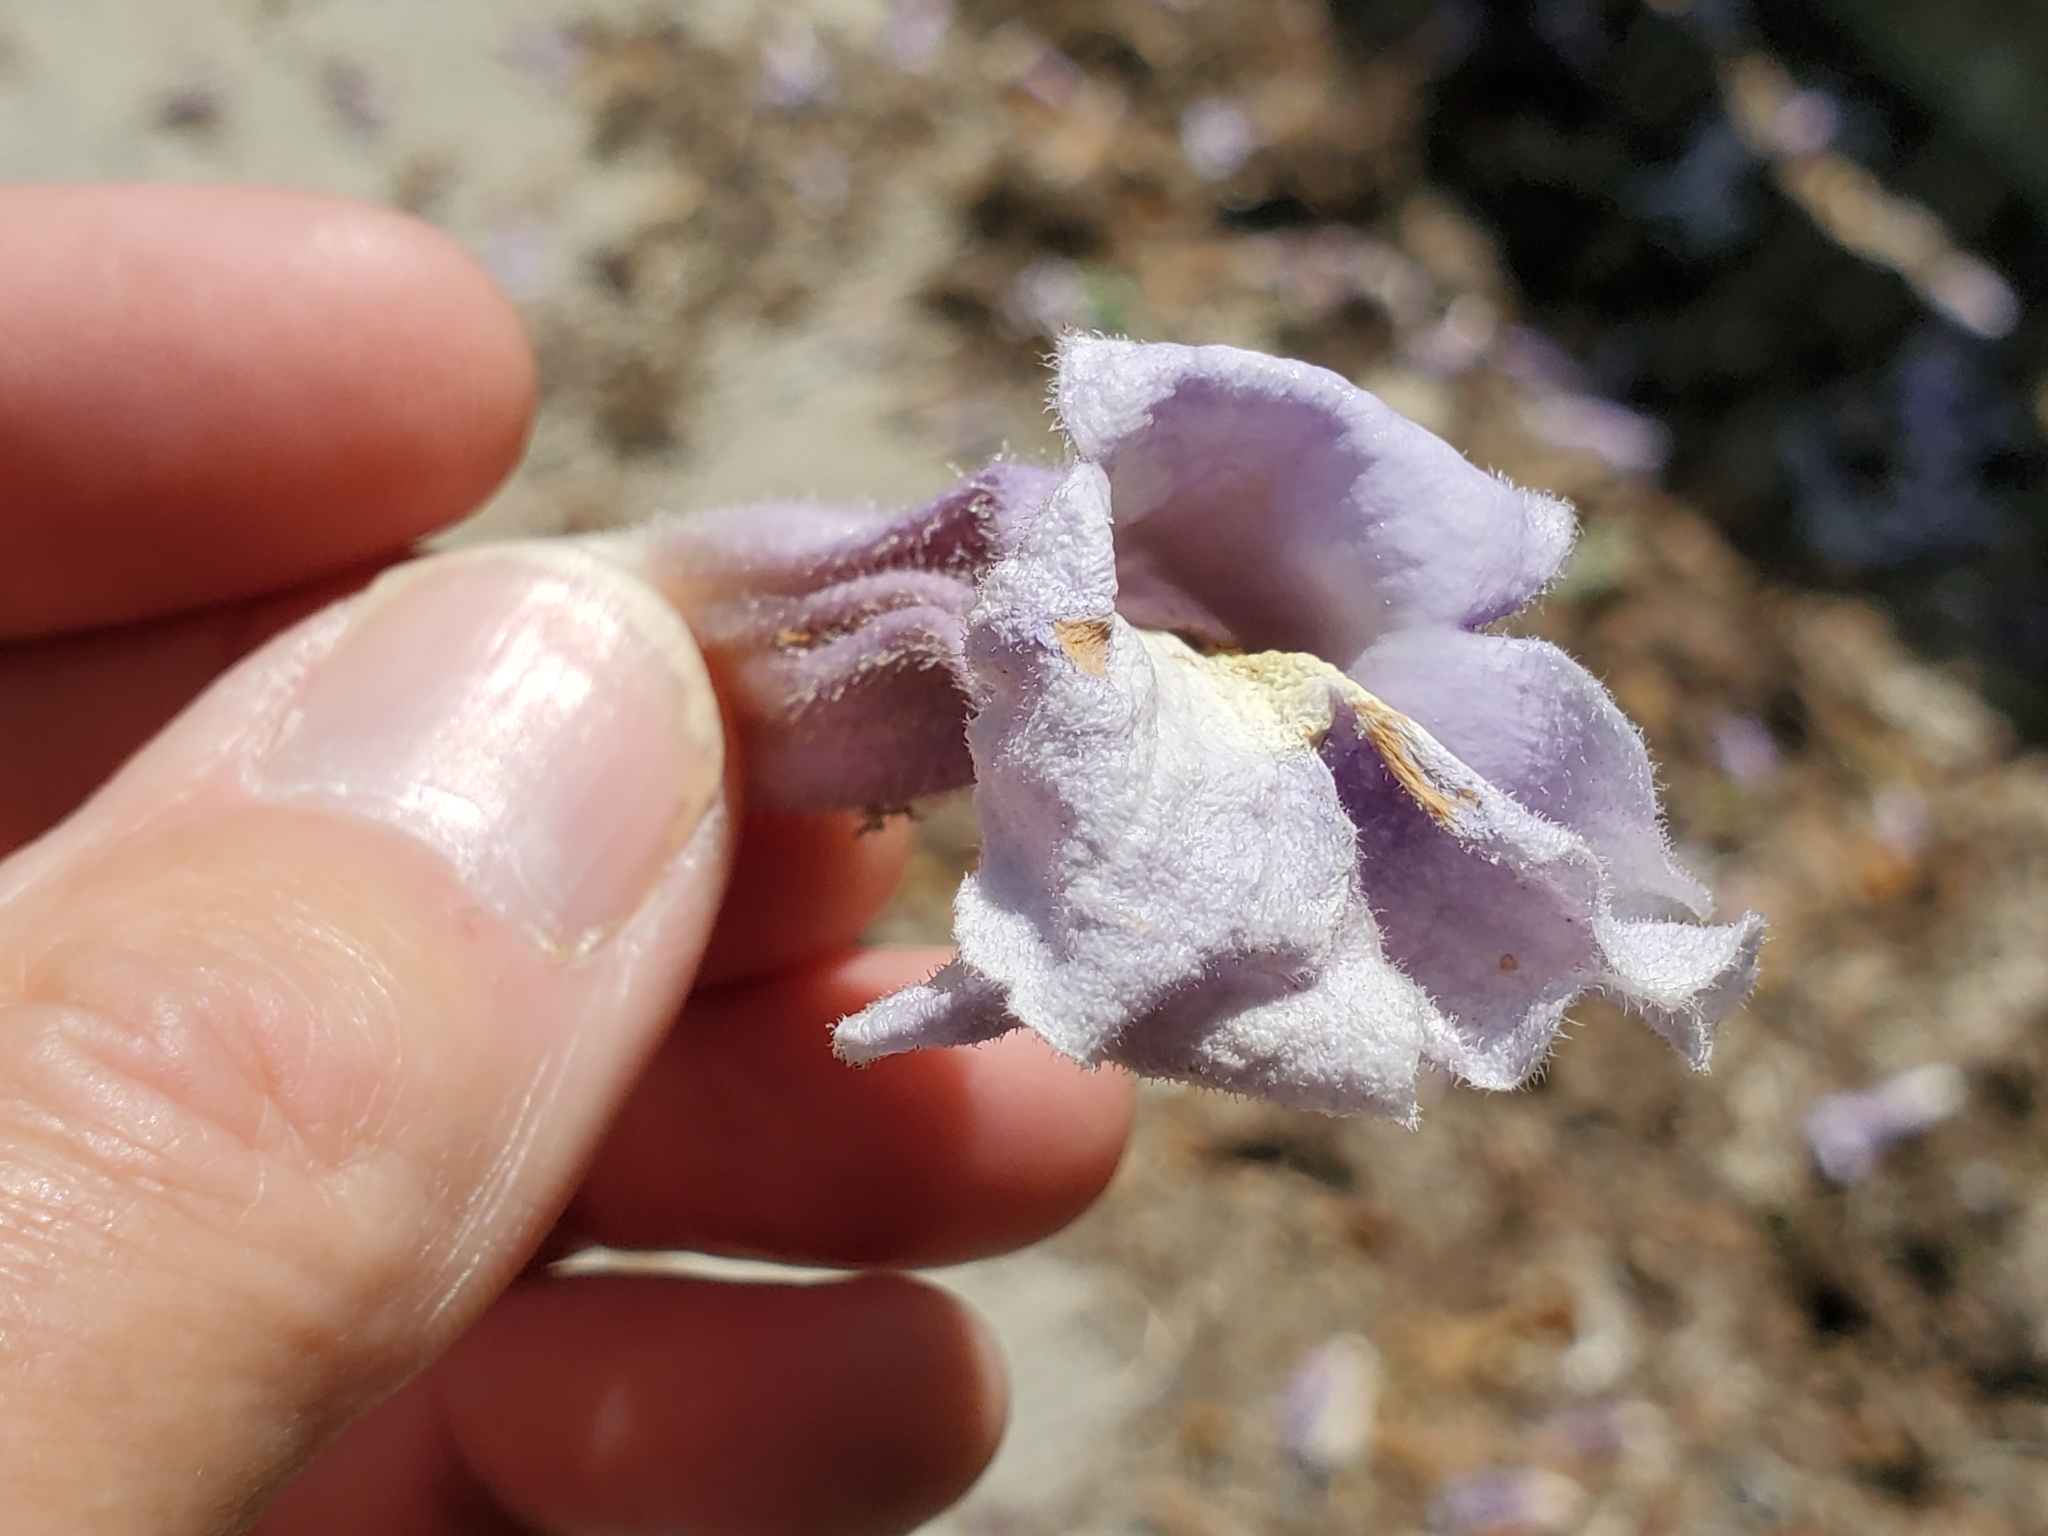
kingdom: Plantae
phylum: Tracheophyta
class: Magnoliopsida
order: Lamiales
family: Paulowniaceae
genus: Paulownia
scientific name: Paulownia tomentosa
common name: Foxglove-tree
